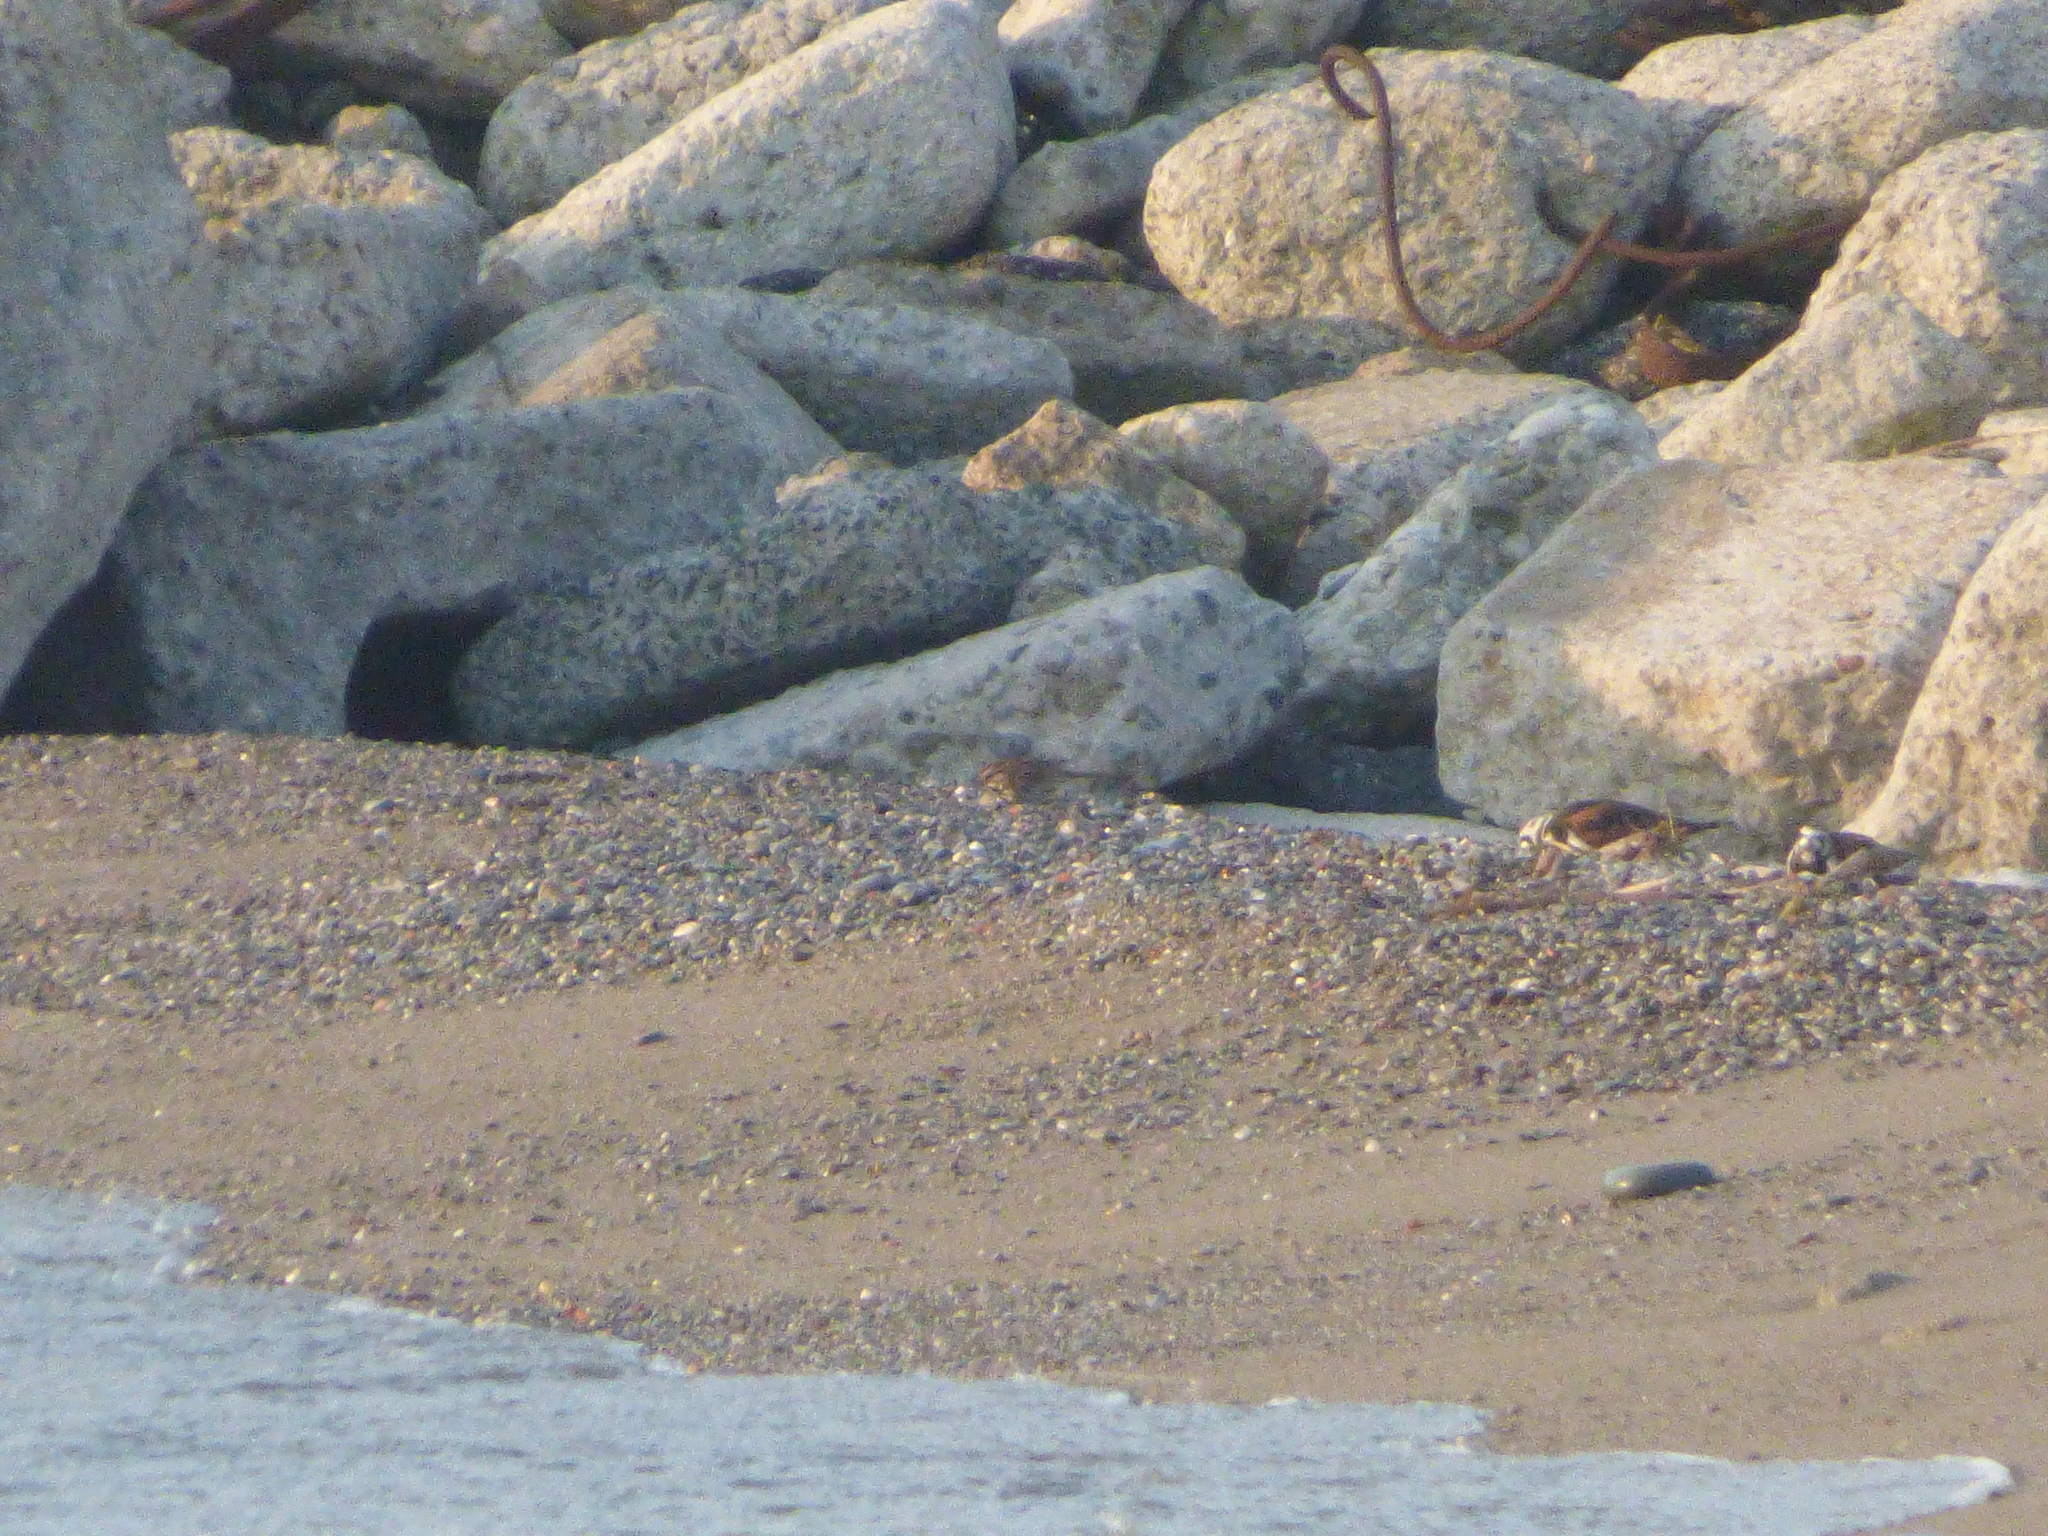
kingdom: Animalia
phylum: Chordata
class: Aves
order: Passeriformes
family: Passerellidae
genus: Melospiza
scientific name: Melospiza melodia
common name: Song sparrow
